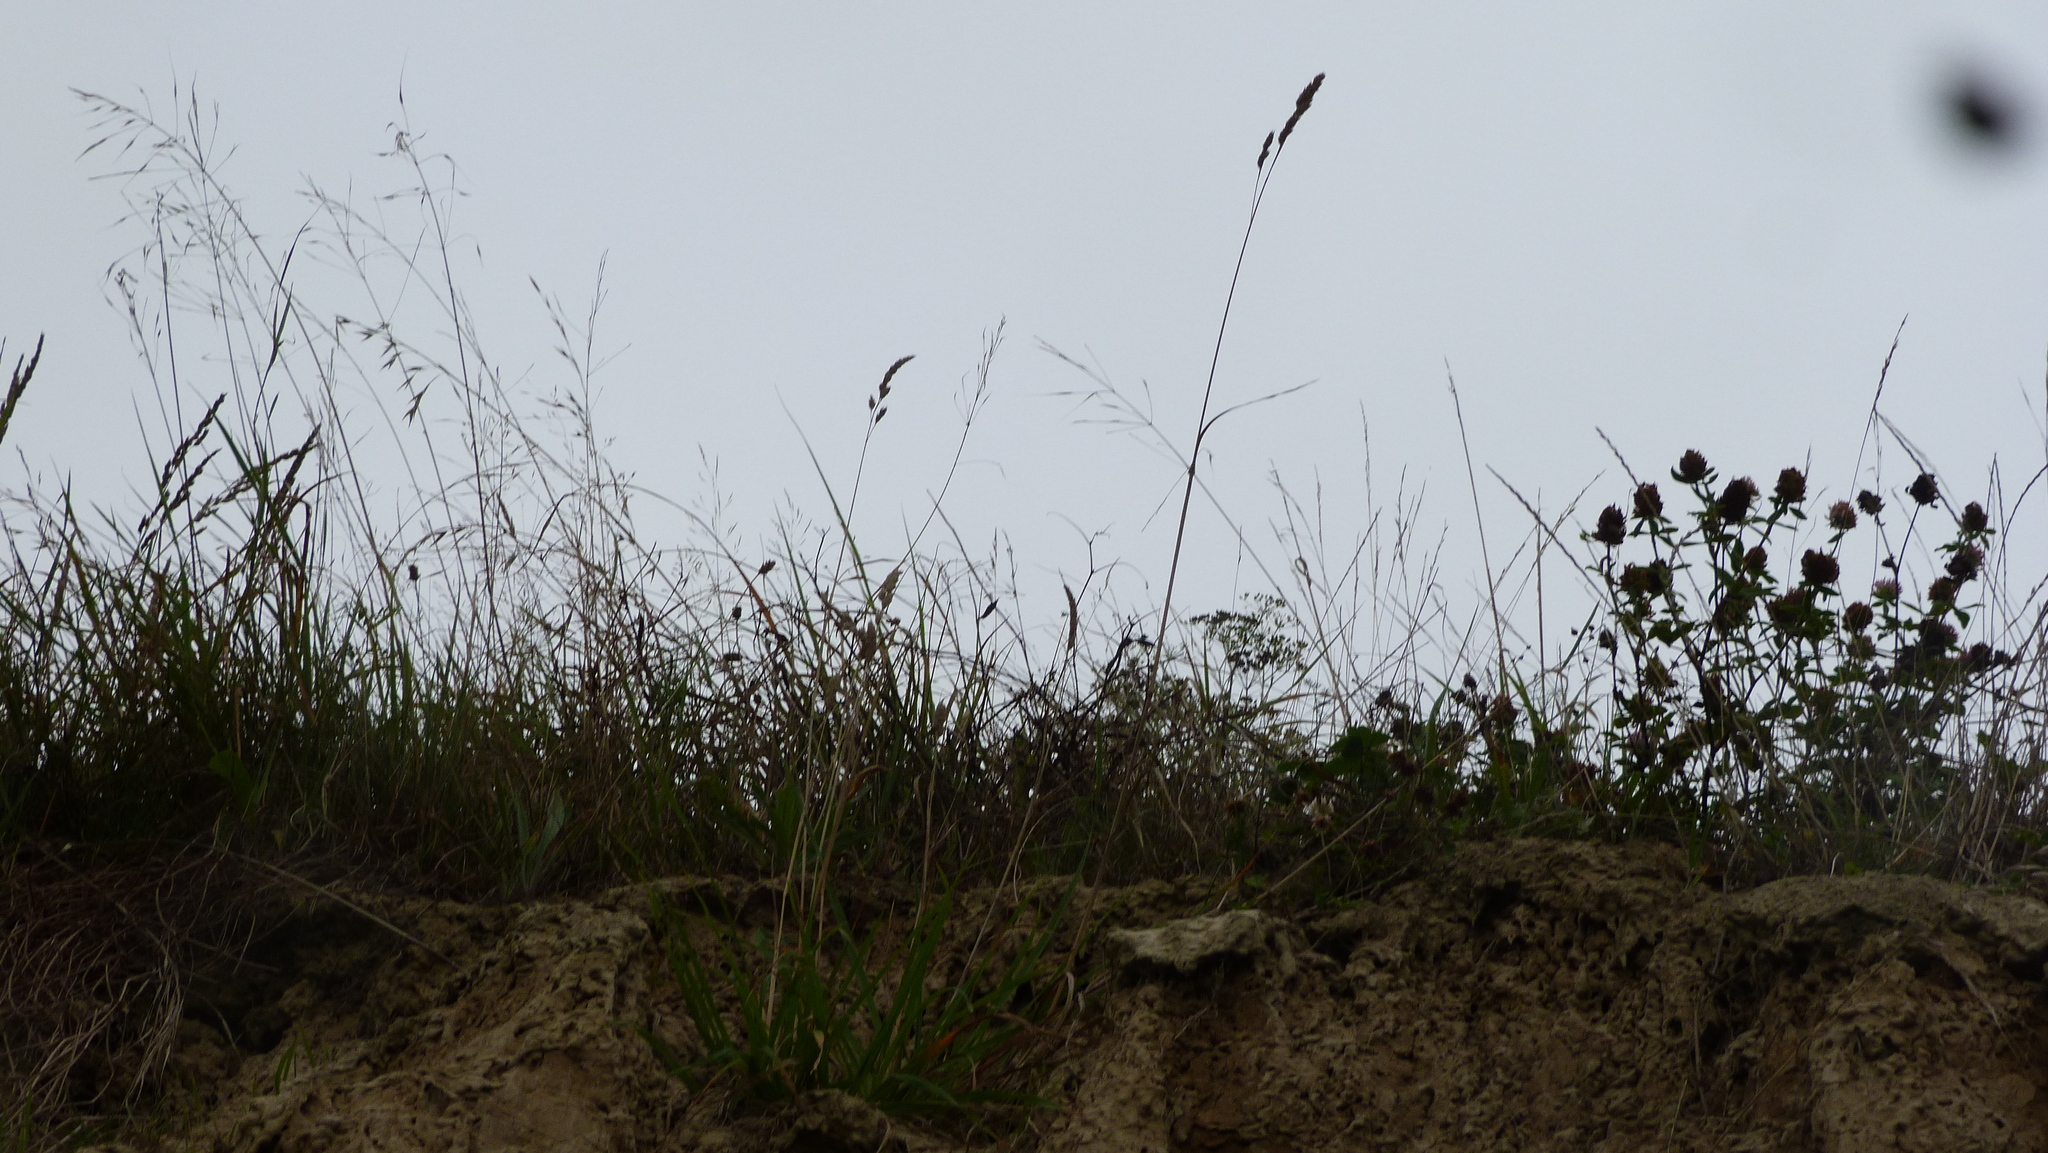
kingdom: Plantae
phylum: Tracheophyta
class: Liliopsida
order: Poales
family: Poaceae
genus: Dactylis
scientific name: Dactylis glomerata
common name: Orchardgrass
